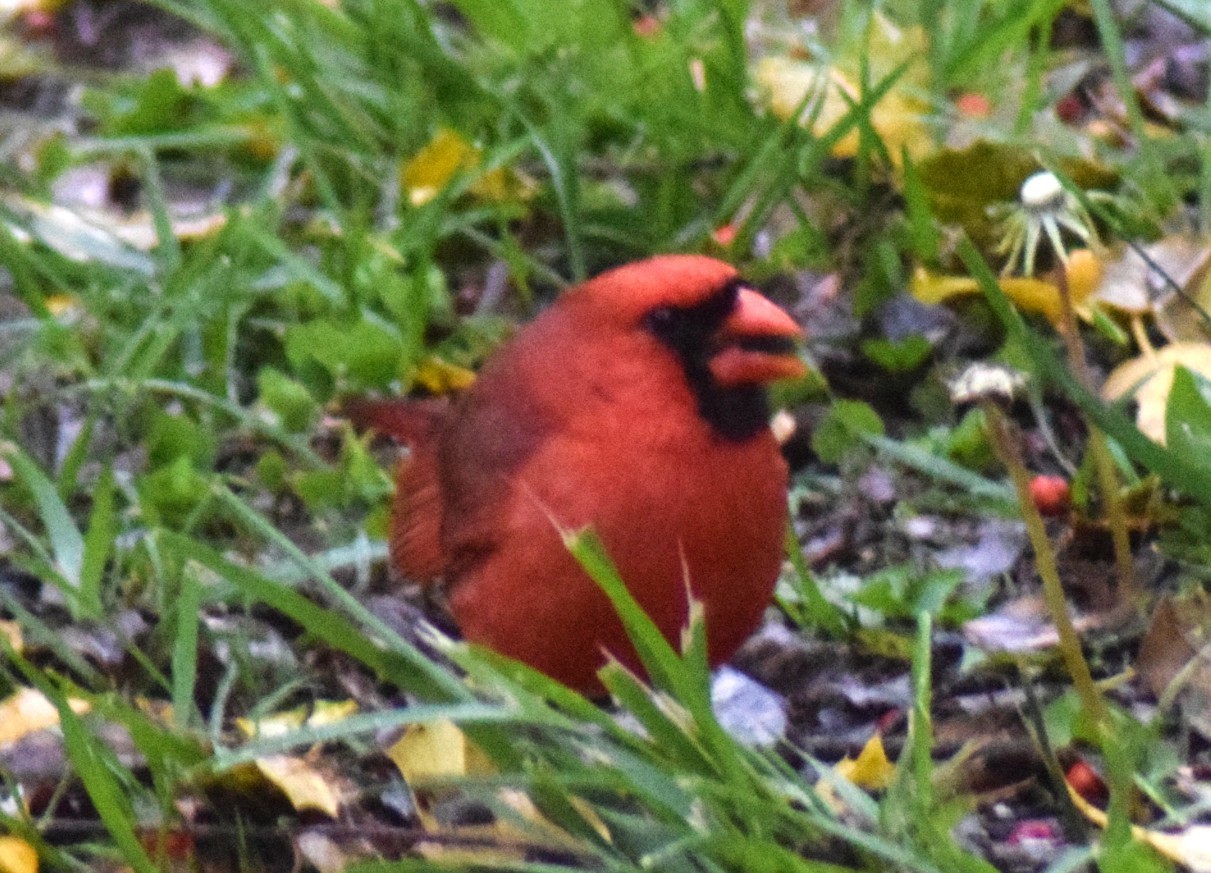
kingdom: Animalia
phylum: Chordata
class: Aves
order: Passeriformes
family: Cardinalidae
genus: Cardinalis
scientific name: Cardinalis cardinalis
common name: Northern cardinal
